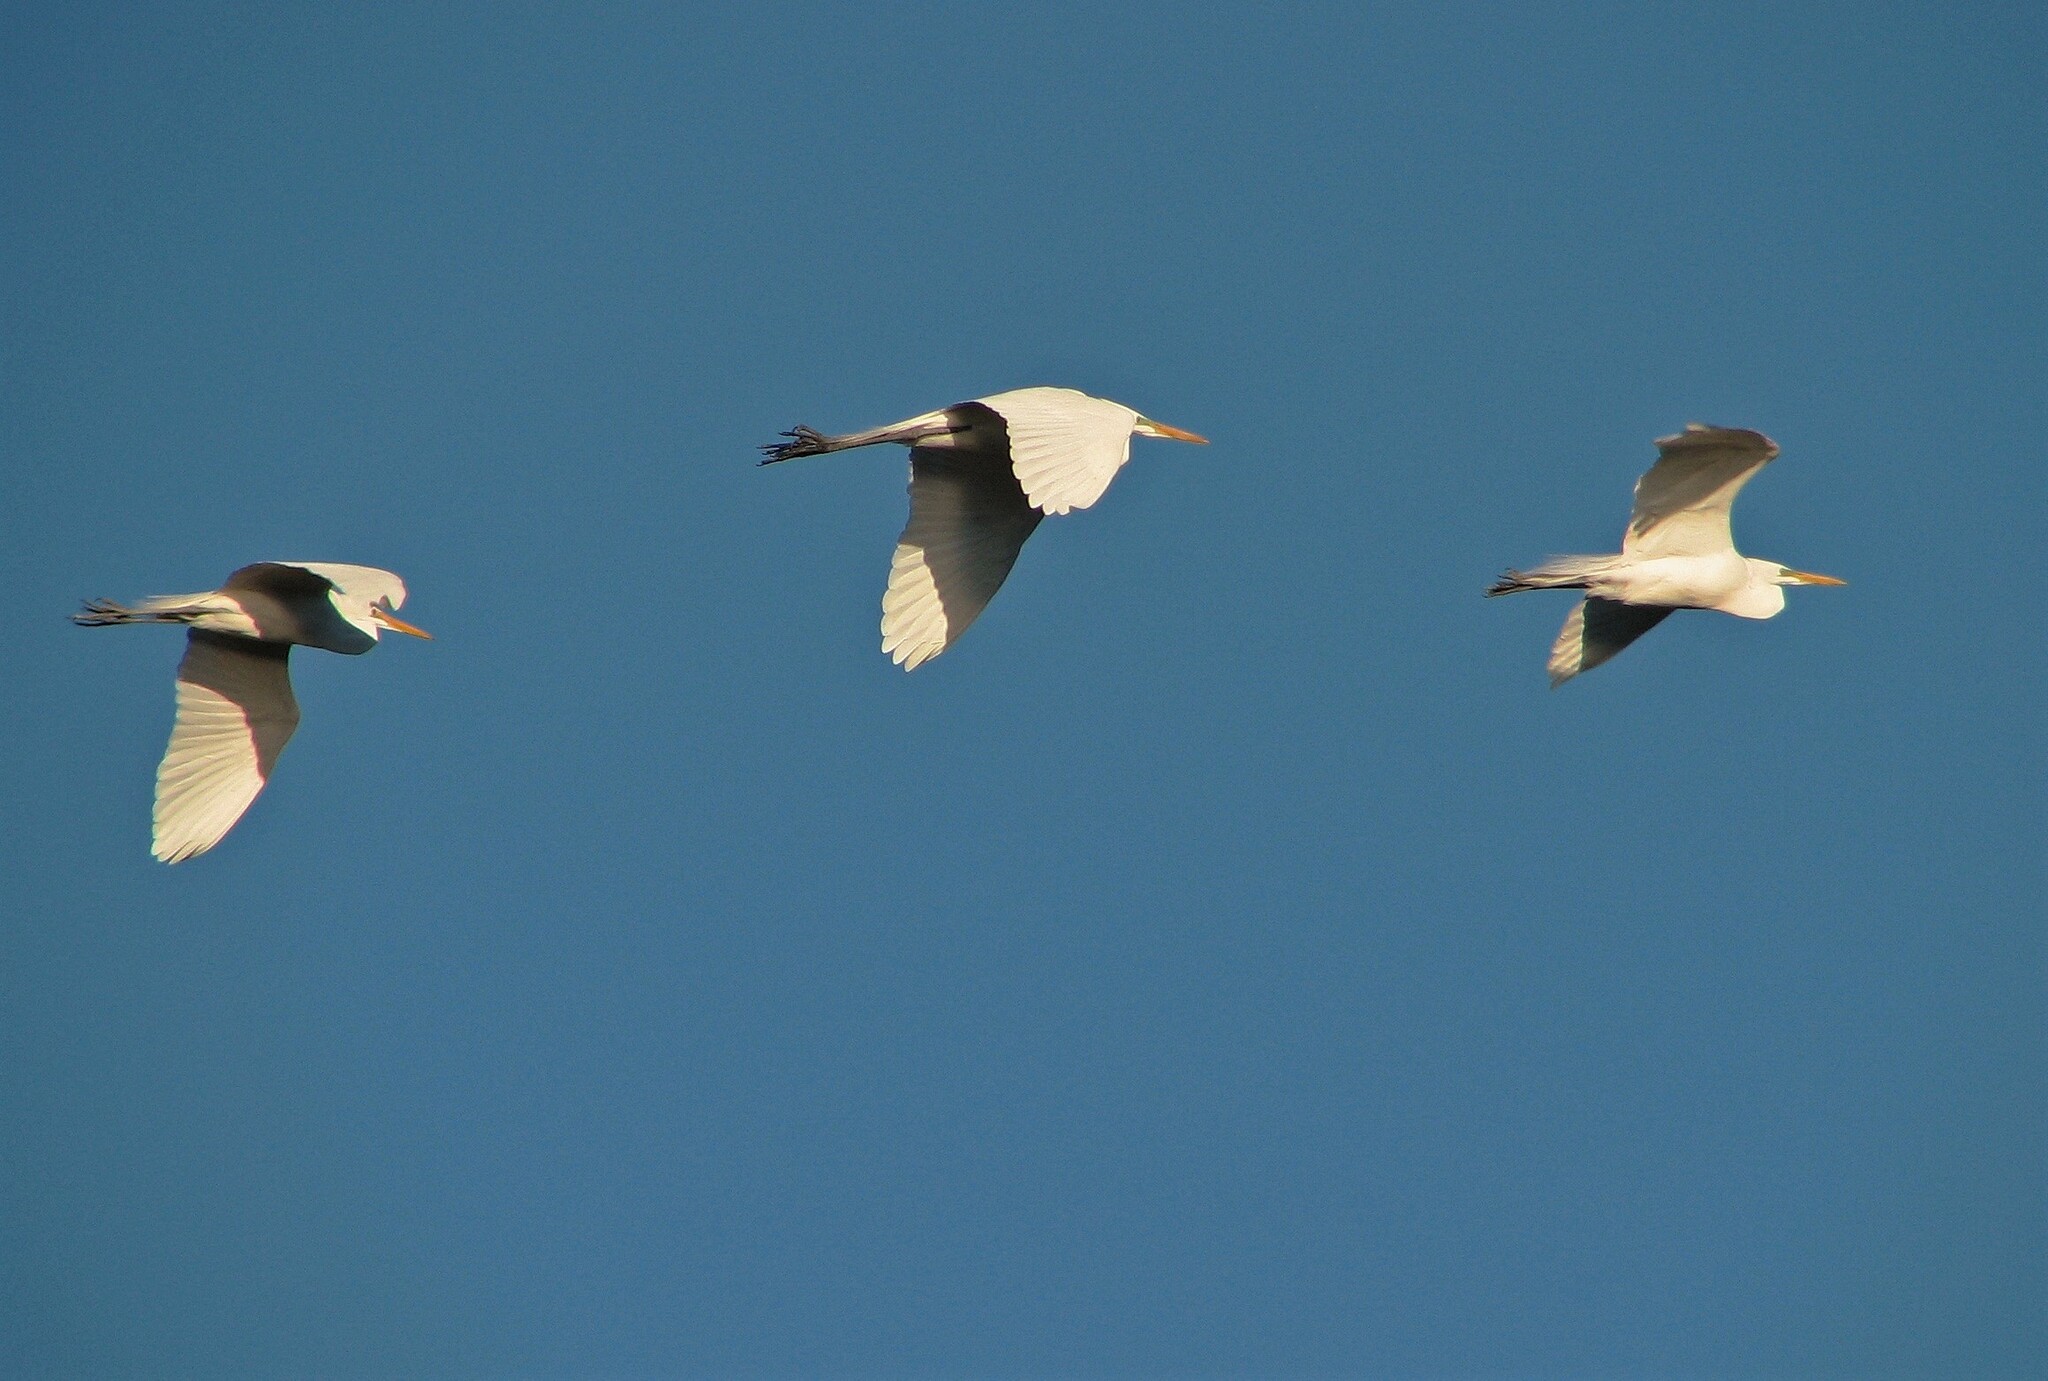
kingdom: Animalia
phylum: Chordata
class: Aves
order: Pelecaniformes
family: Ardeidae
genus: Ardea
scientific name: Ardea alba
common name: Great egret
